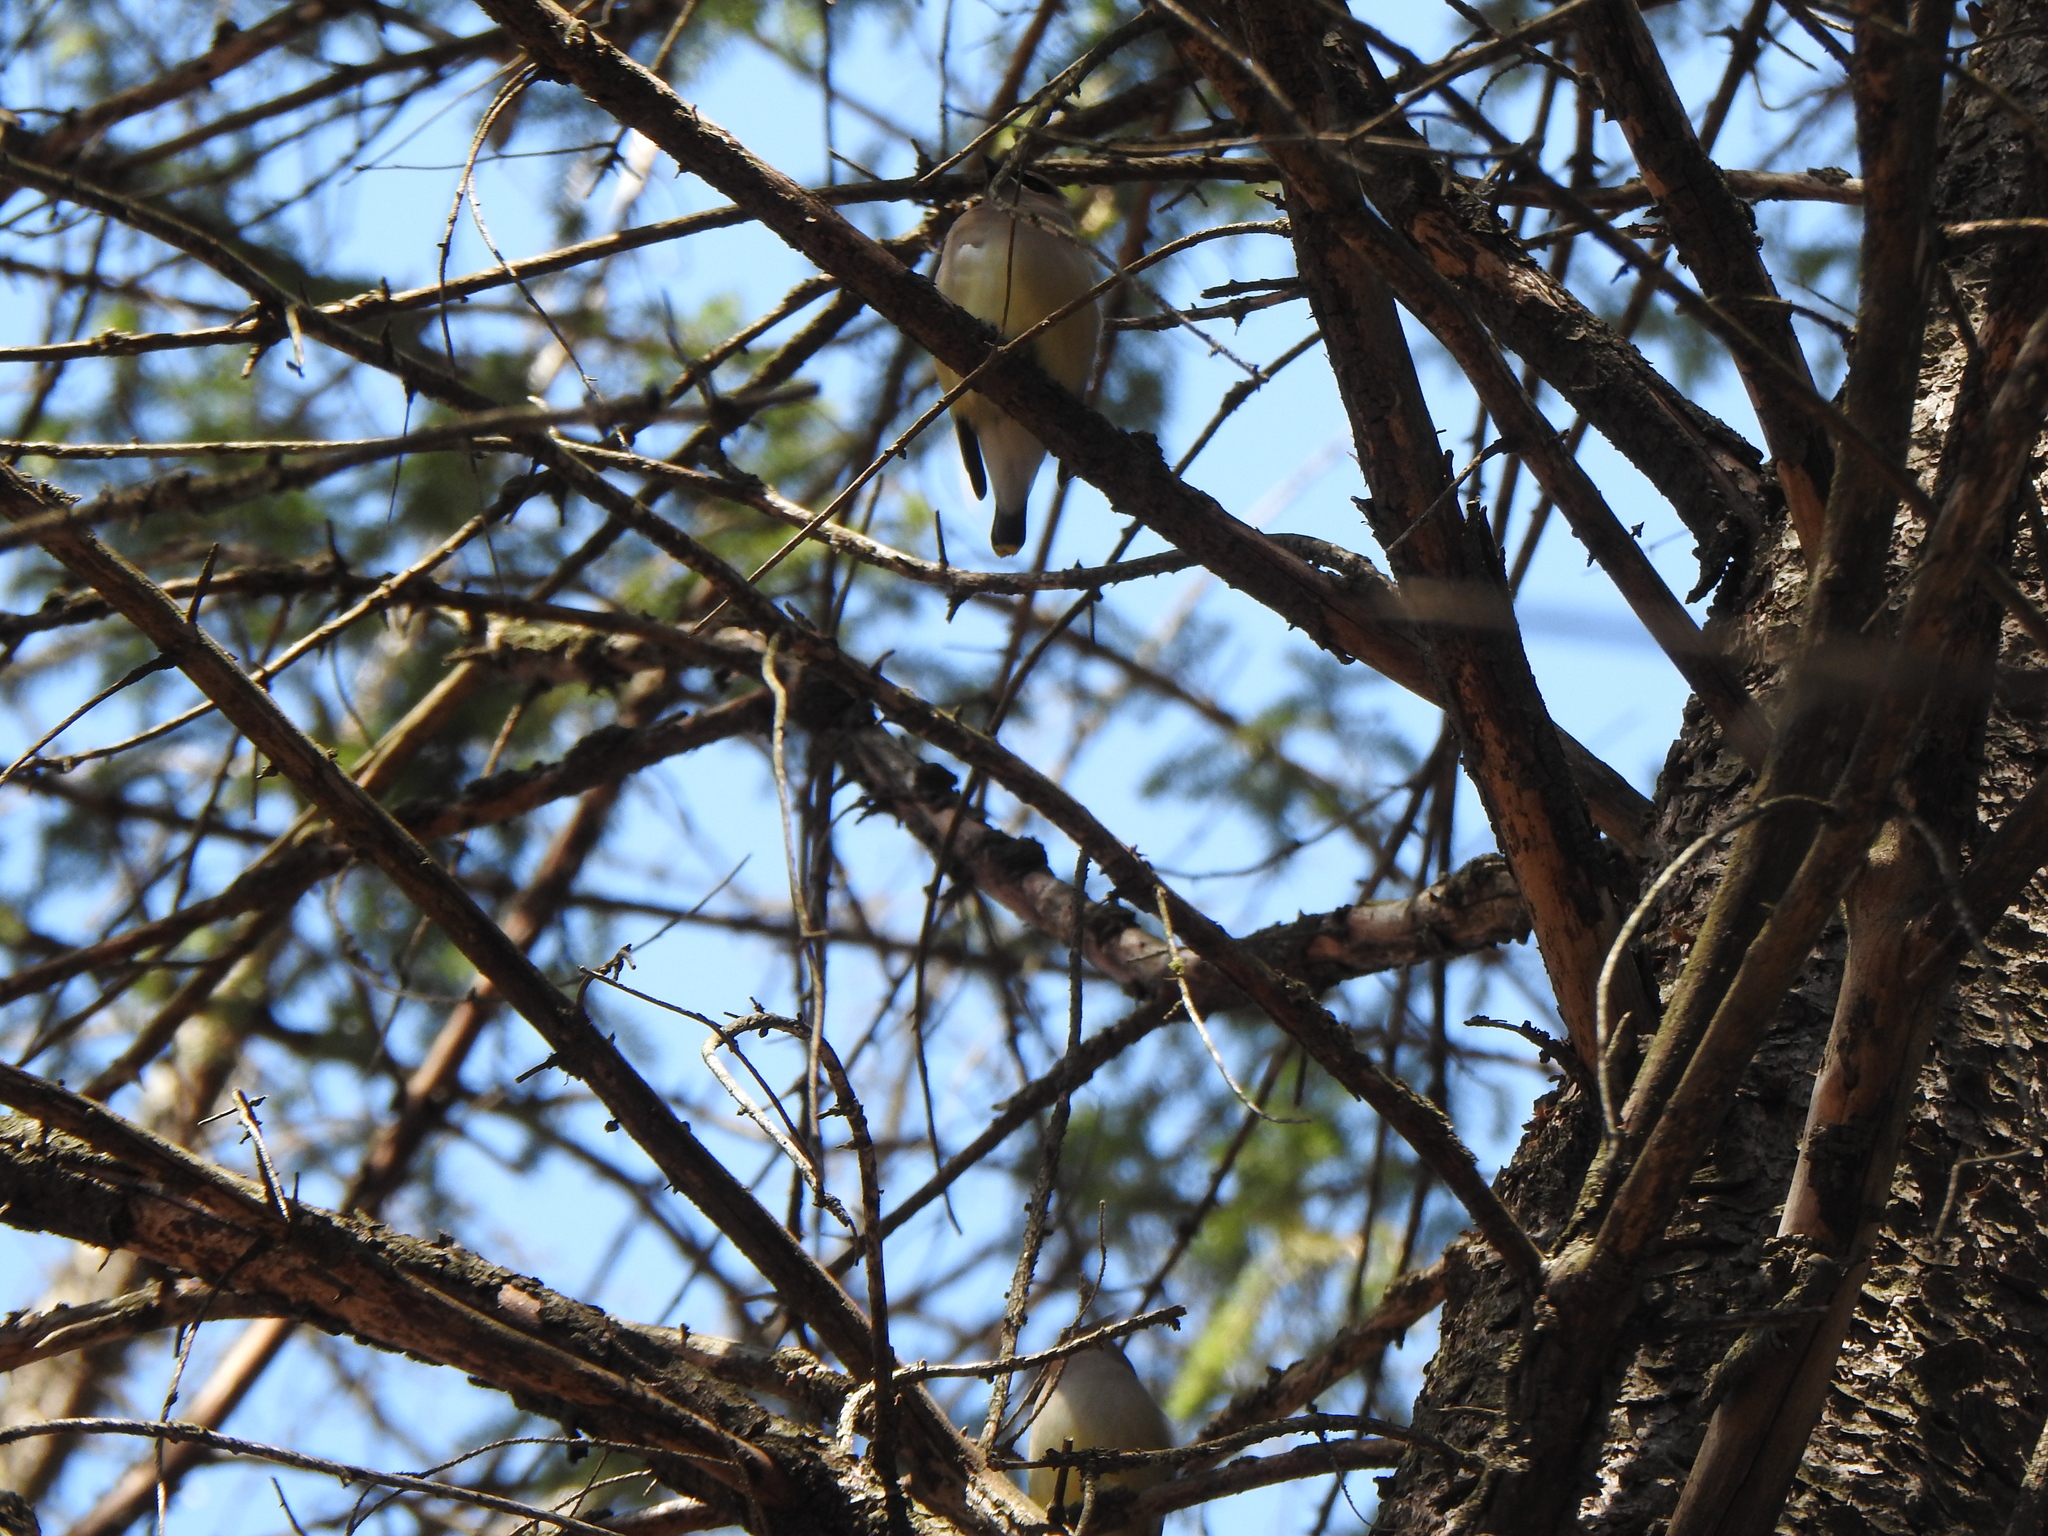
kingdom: Animalia
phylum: Chordata
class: Aves
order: Passeriformes
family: Bombycillidae
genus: Bombycilla
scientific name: Bombycilla cedrorum
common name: Cedar waxwing
